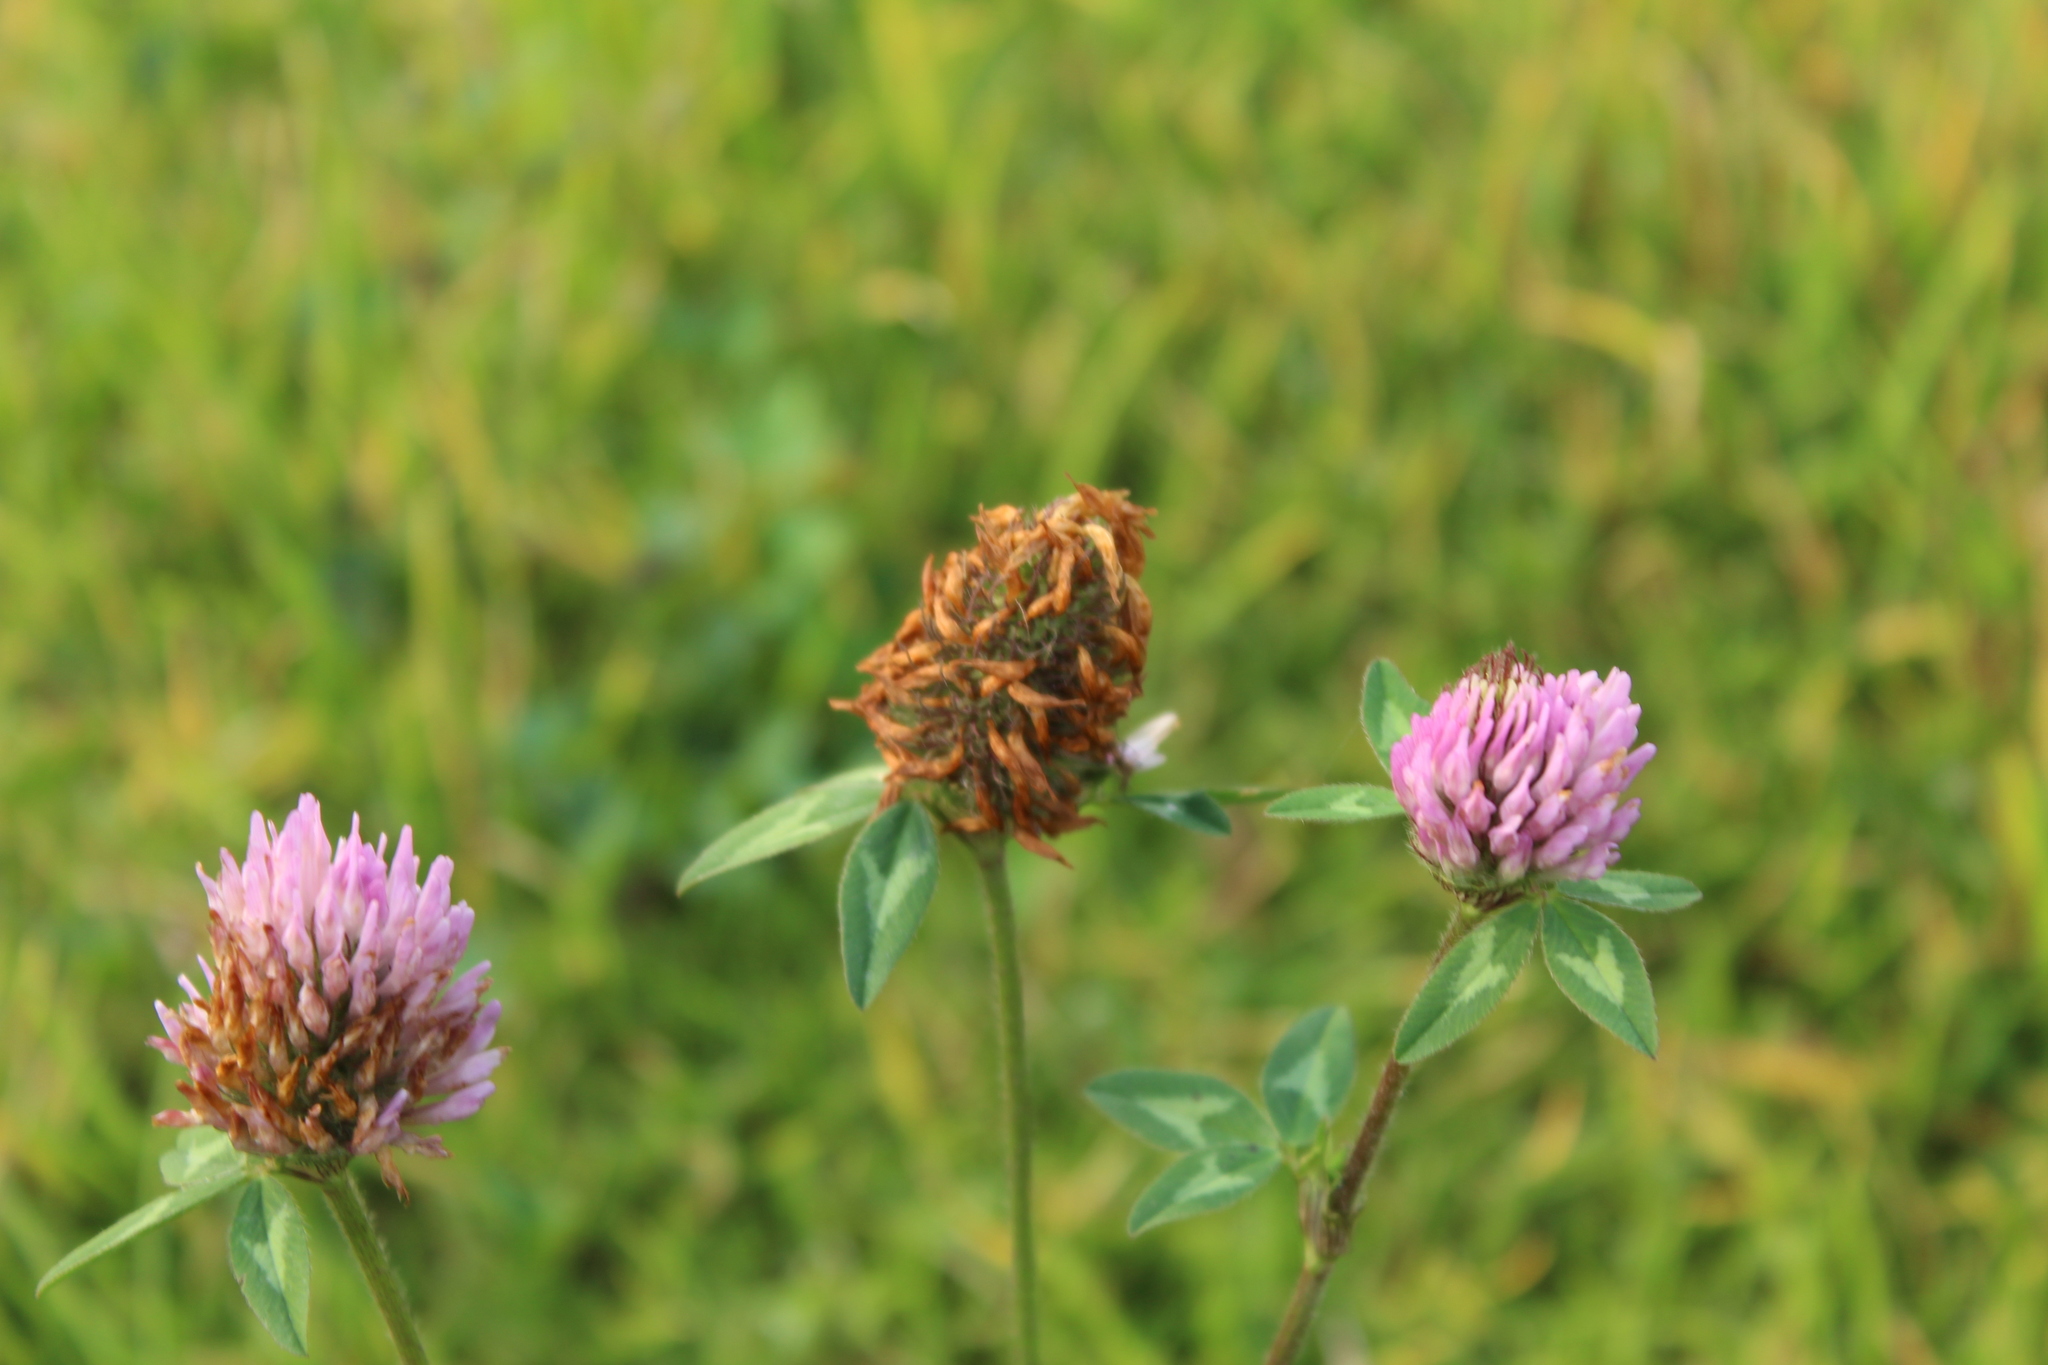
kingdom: Plantae
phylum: Tracheophyta
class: Magnoliopsida
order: Fabales
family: Fabaceae
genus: Trifolium
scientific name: Trifolium pratense
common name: Red clover
